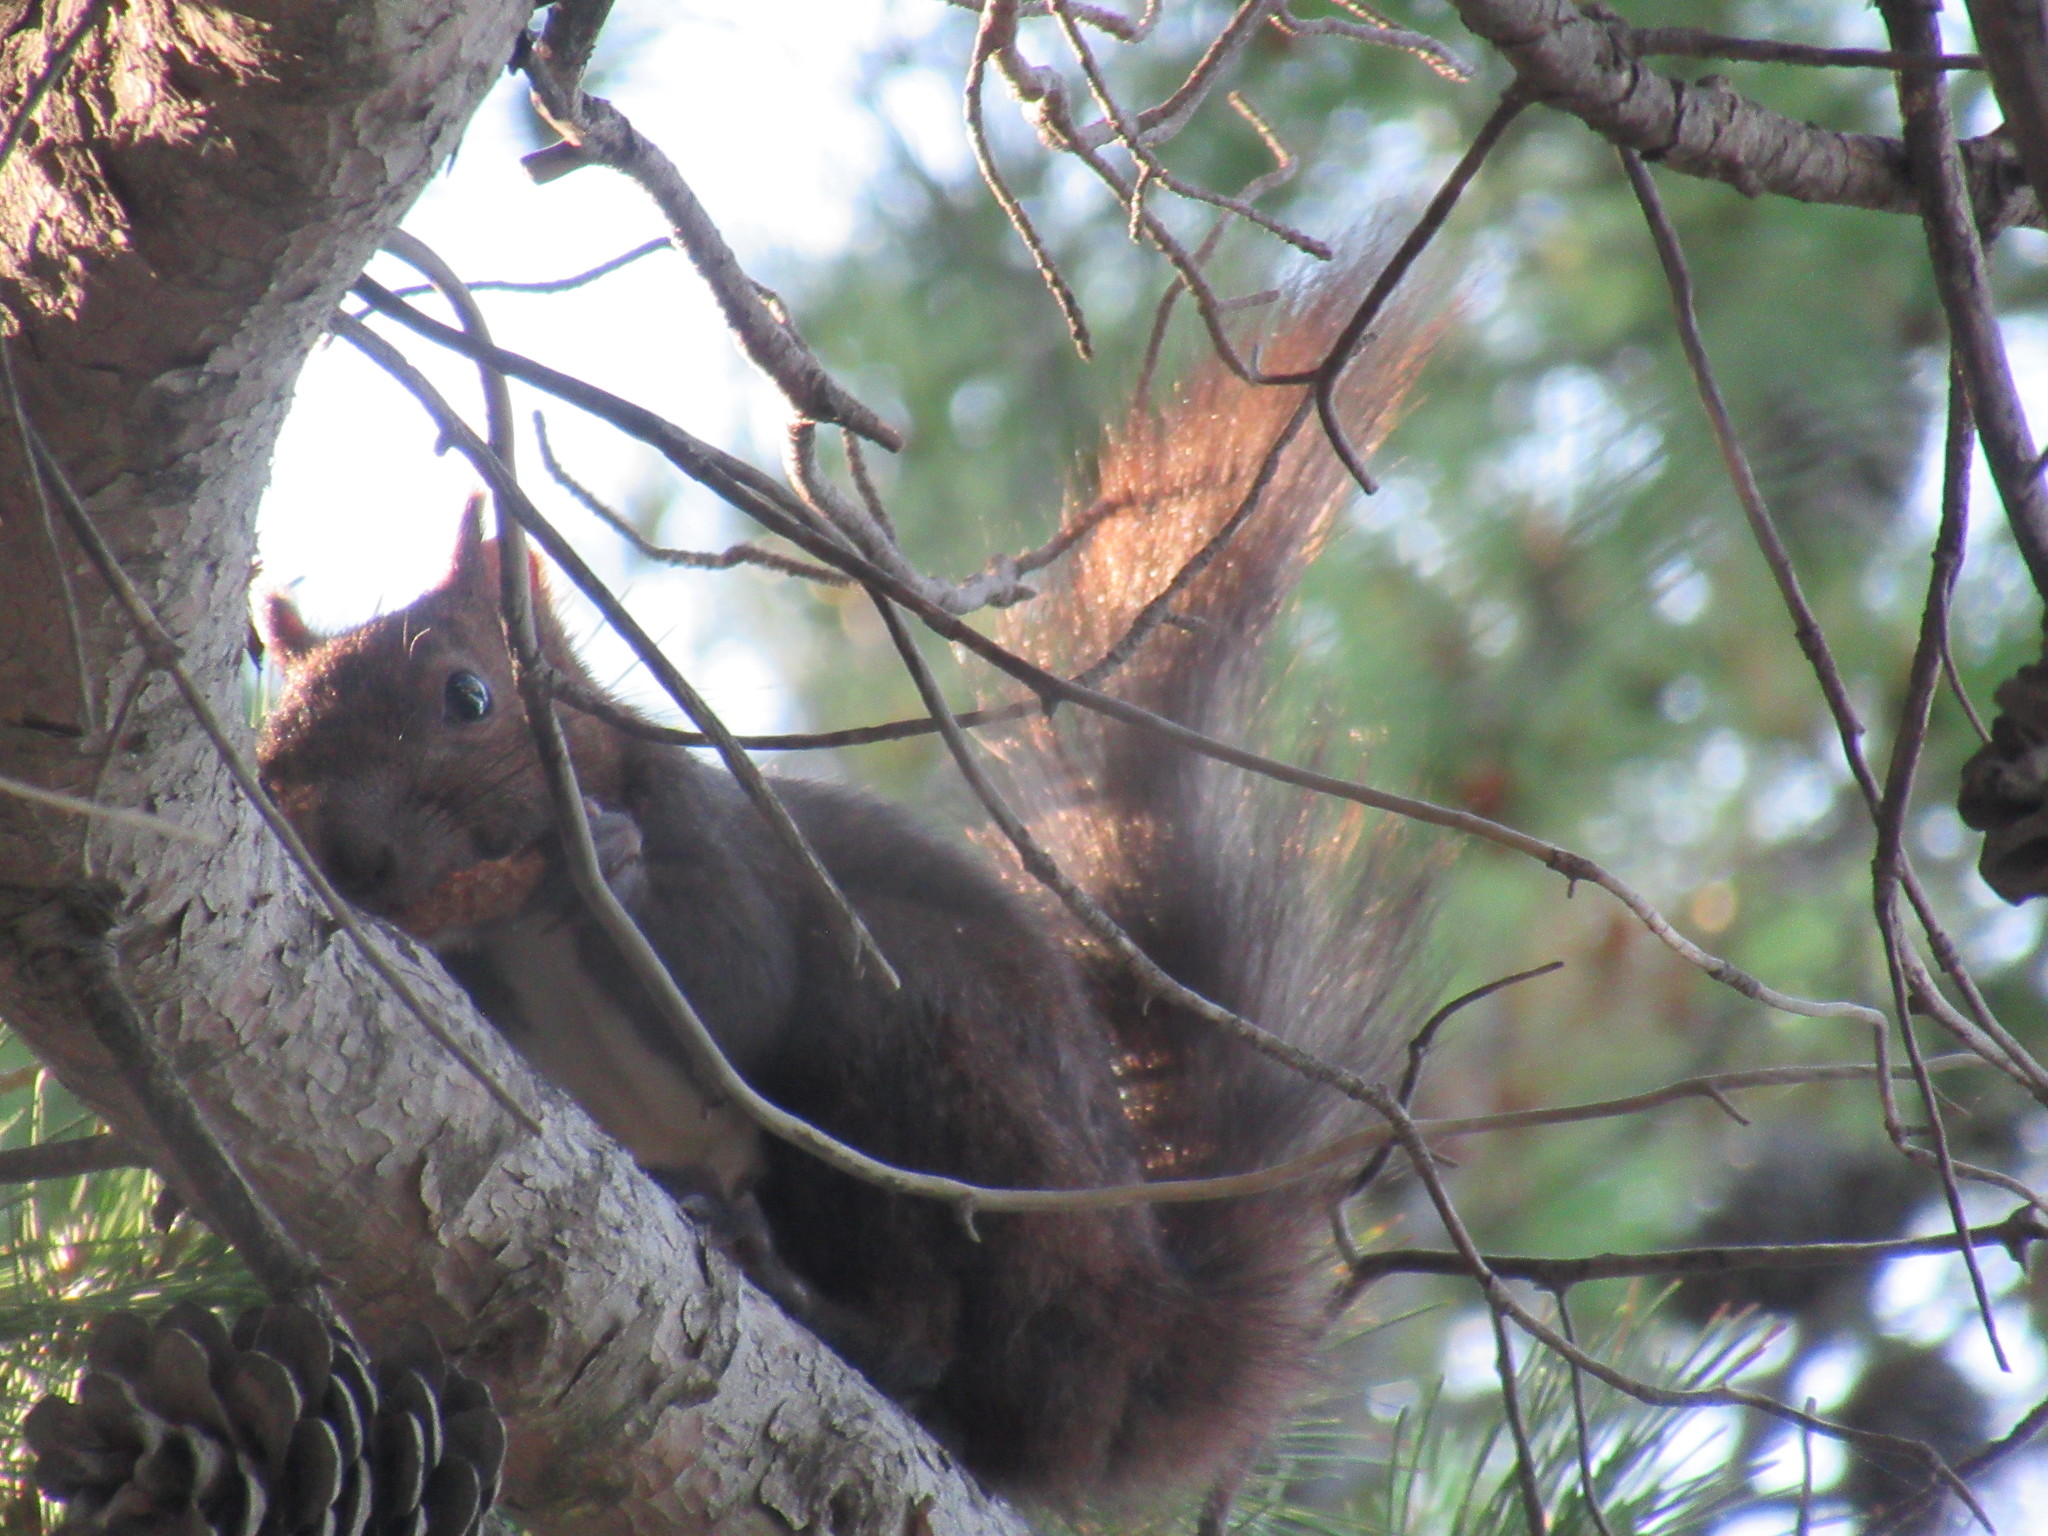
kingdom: Animalia
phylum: Chordata
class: Mammalia
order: Rodentia
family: Sciuridae
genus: Sciurus
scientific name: Sciurus vulgaris
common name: Eurasian red squirrel
